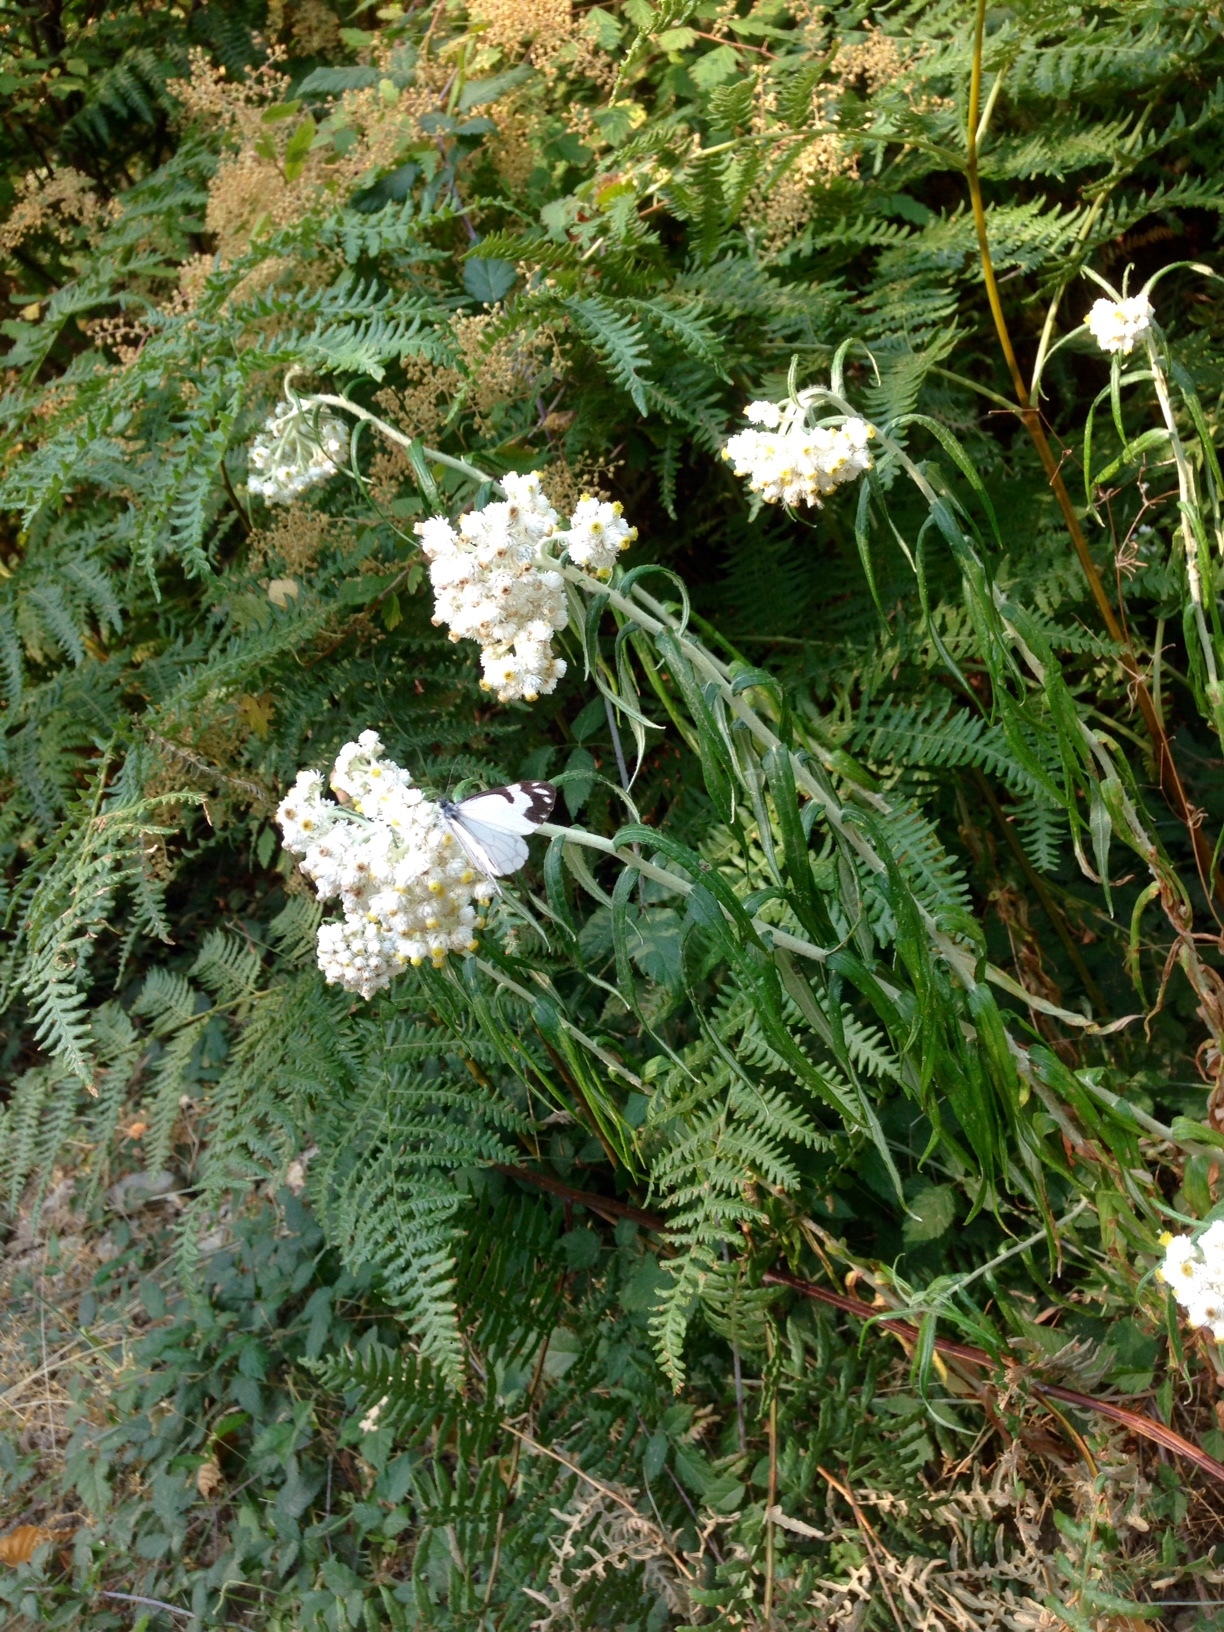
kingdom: Animalia
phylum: Arthropoda
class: Insecta
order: Lepidoptera
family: Pieridae
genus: Neophasia
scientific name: Neophasia menapia
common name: Pine white
